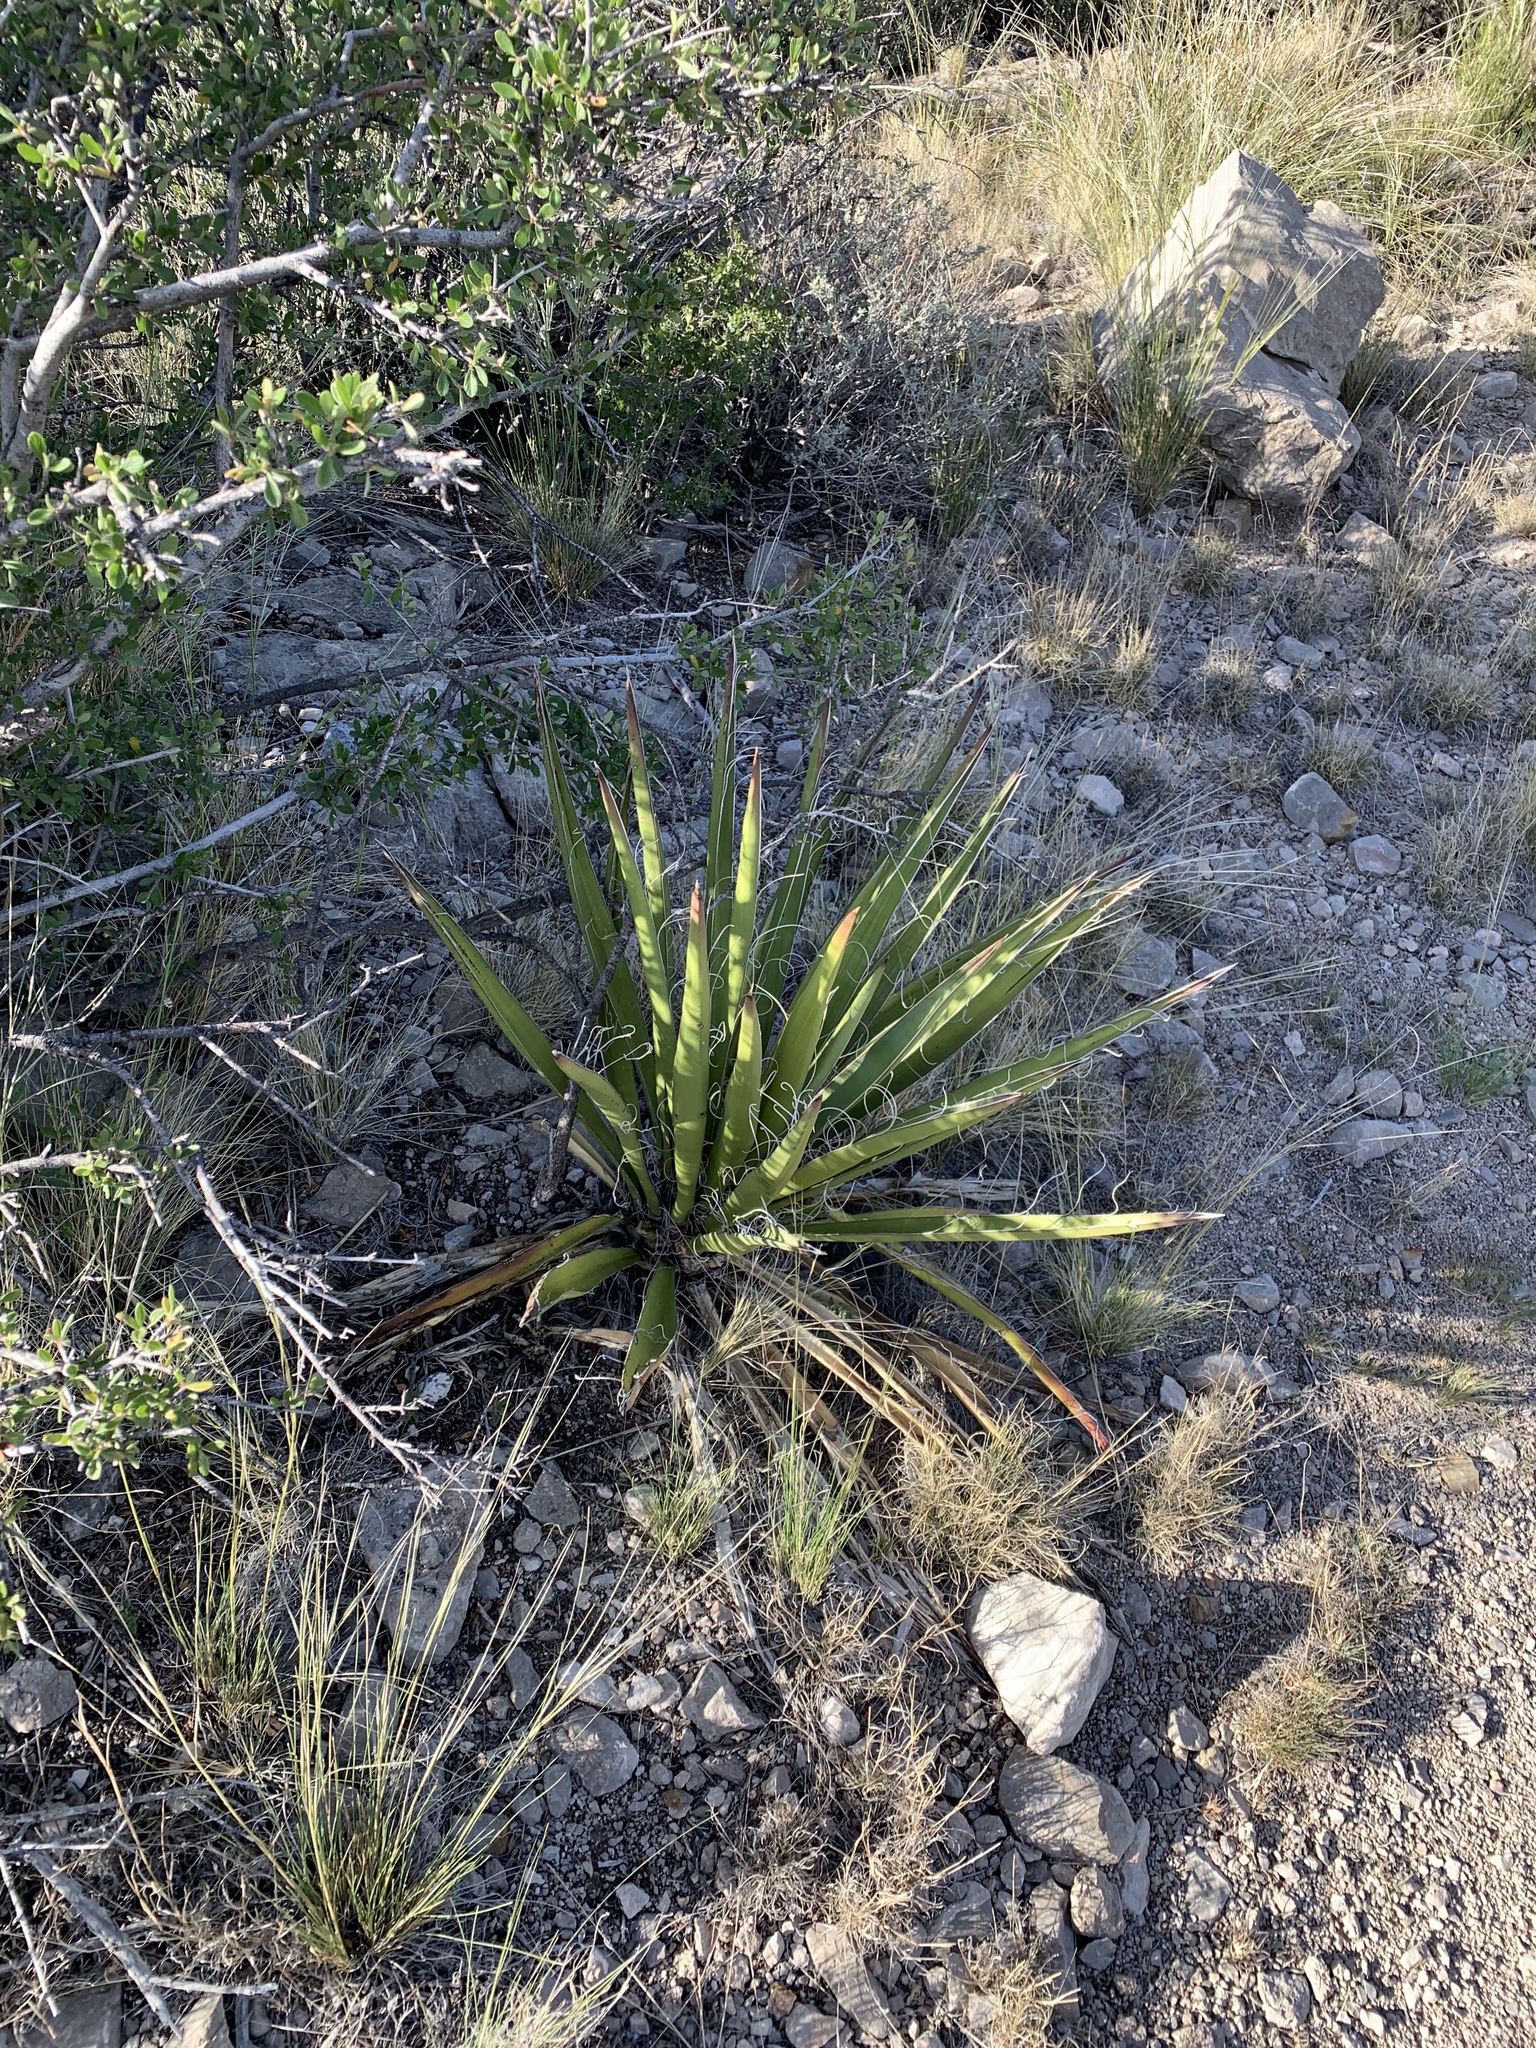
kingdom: Plantae
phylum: Tracheophyta
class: Liliopsida
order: Asparagales
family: Asparagaceae
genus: Yucca
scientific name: Yucca baccata
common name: Banana yucca
